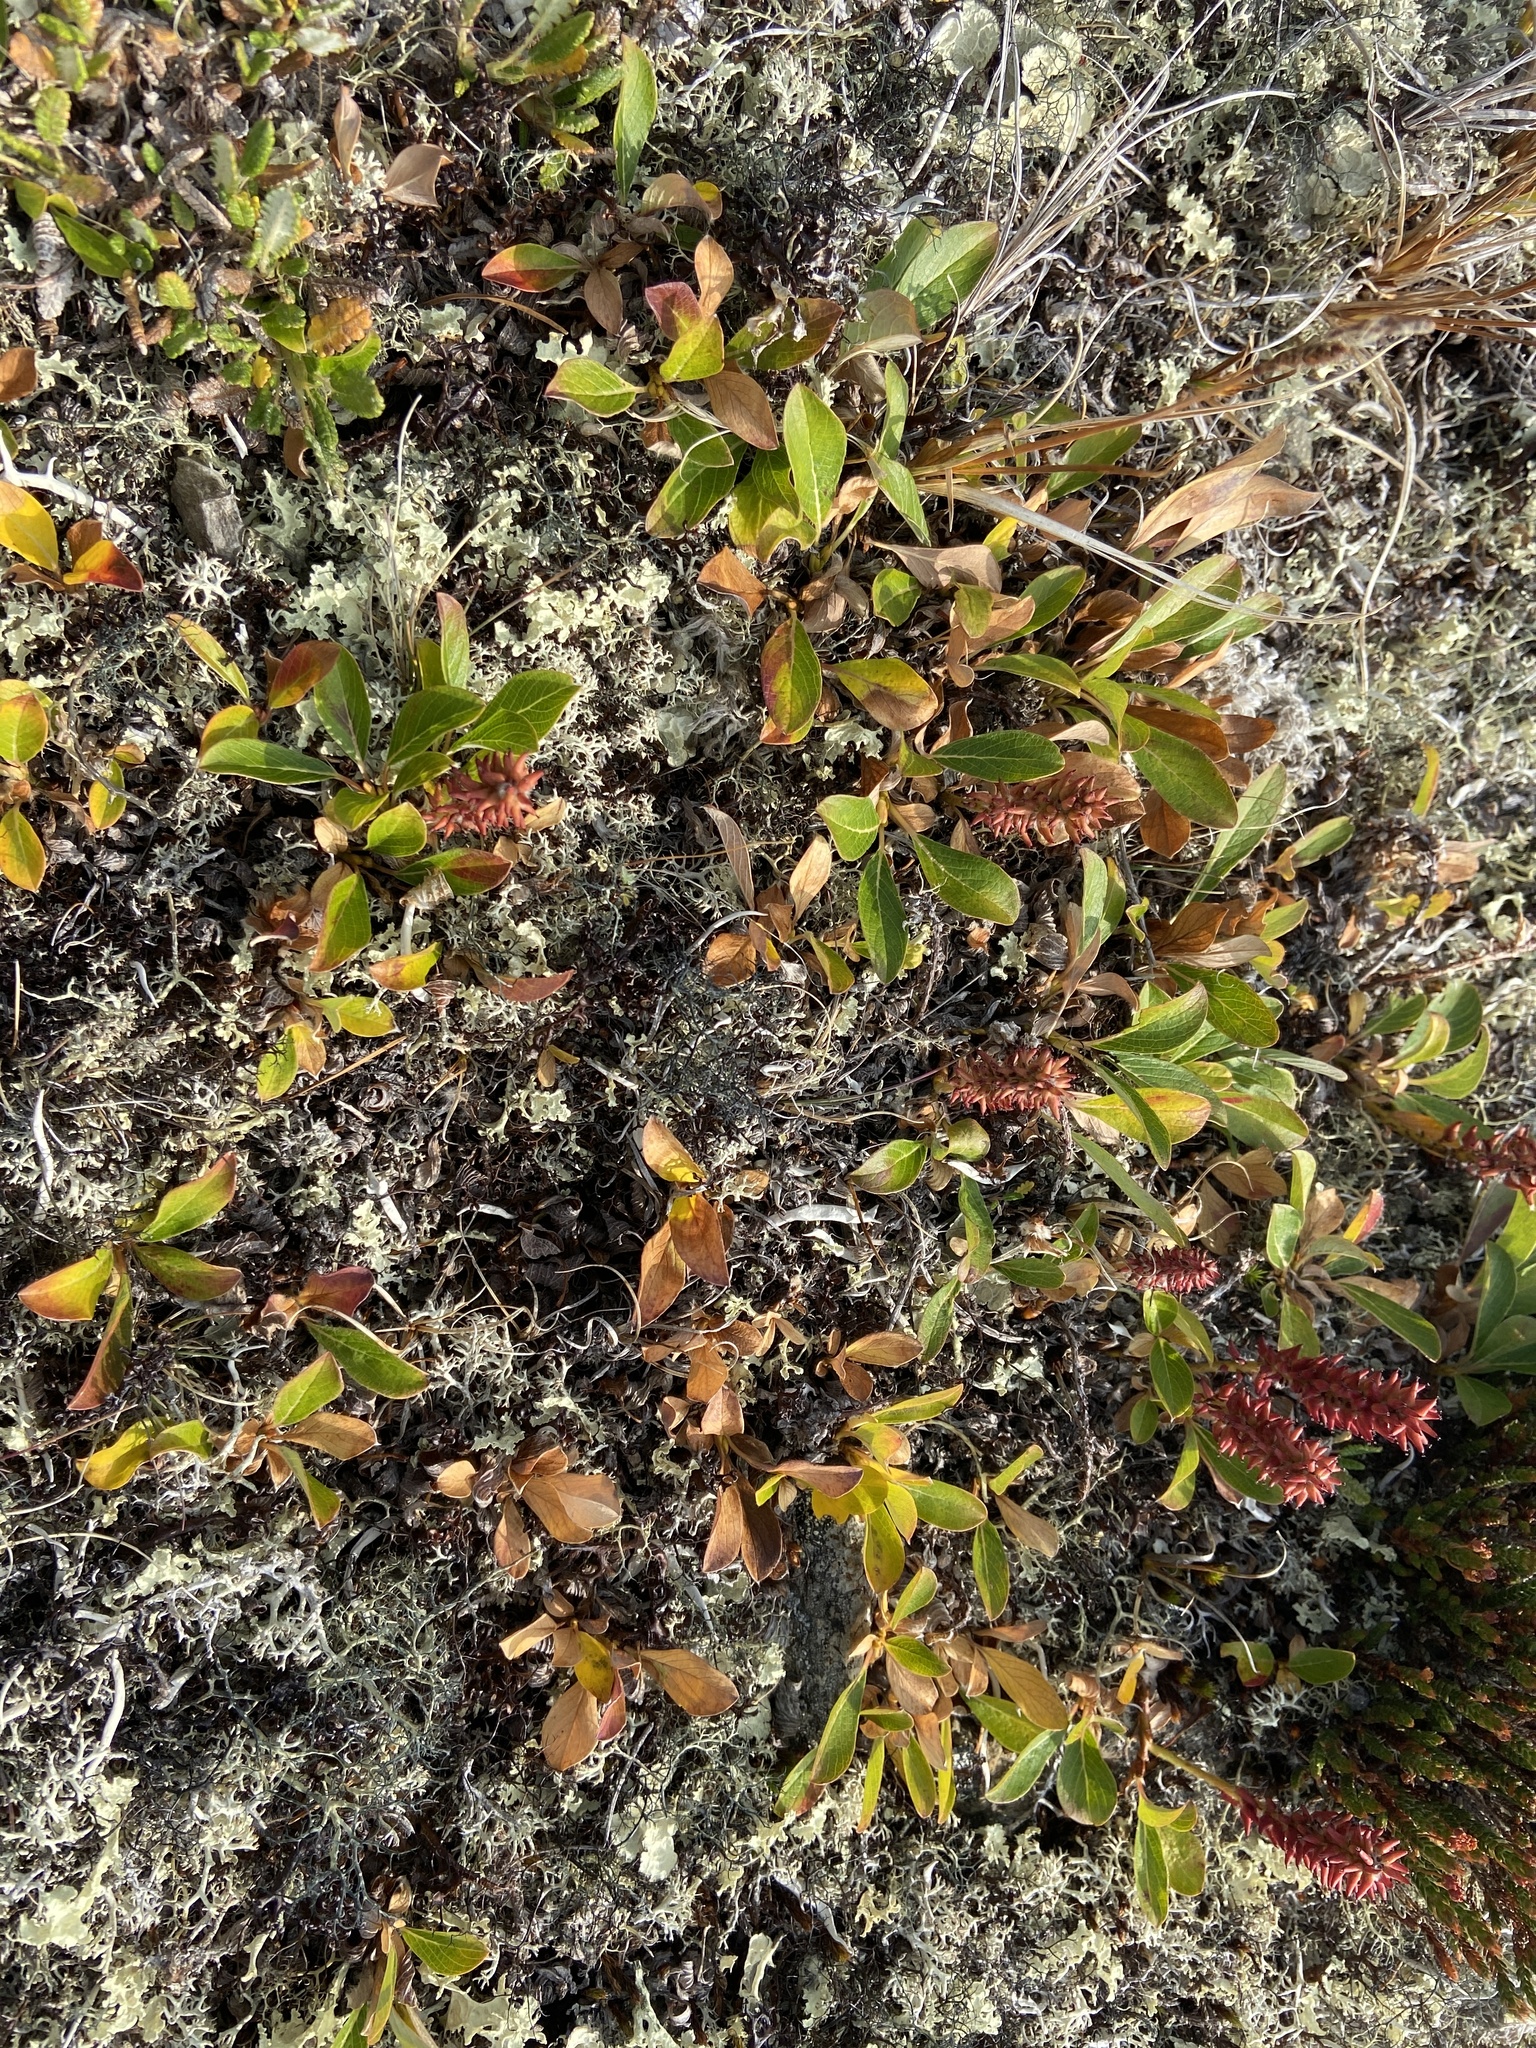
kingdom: Plantae
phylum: Tracheophyta
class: Magnoliopsida
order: Malpighiales
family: Salicaceae
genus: Salix
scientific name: Salix sphenophylla
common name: Wedge-leaved willow
